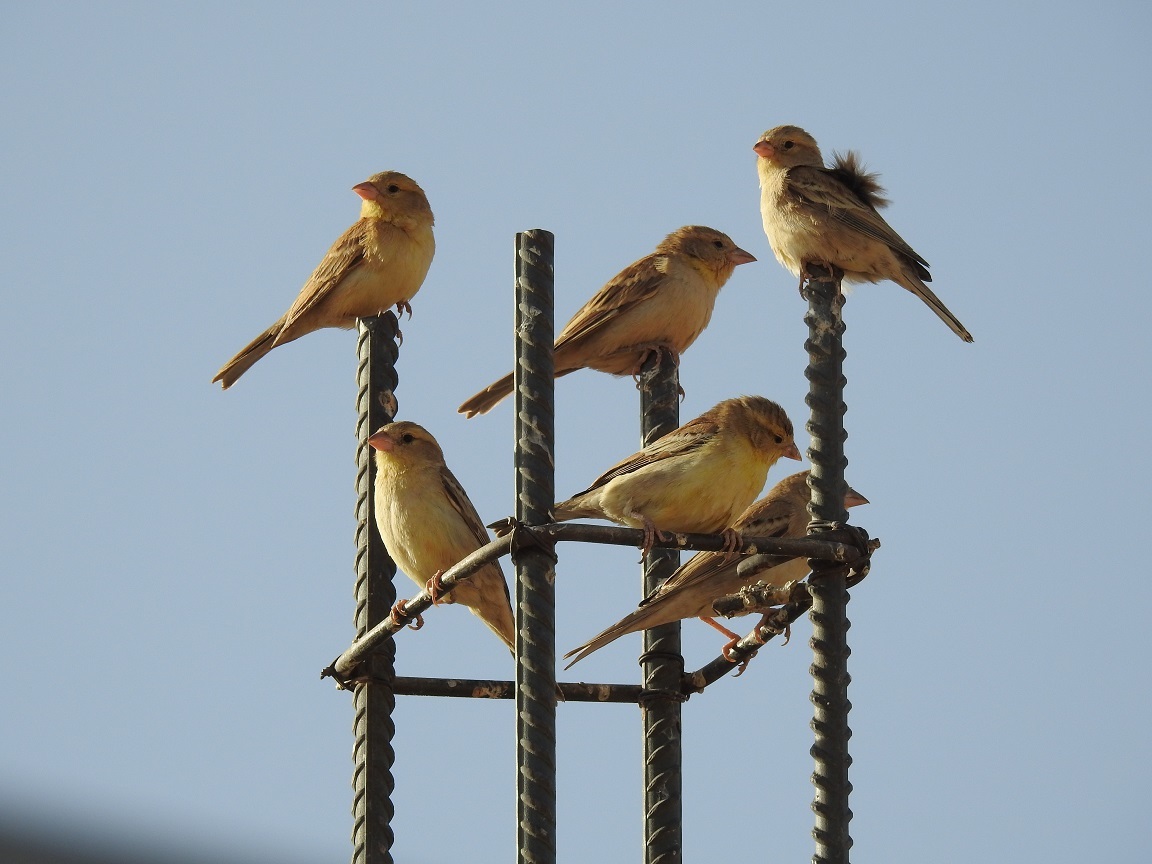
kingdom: Animalia
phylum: Chordata
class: Aves
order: Passeriformes
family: Passeridae
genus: Passer
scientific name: Passer luteus
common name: Sudan golden sparrow
